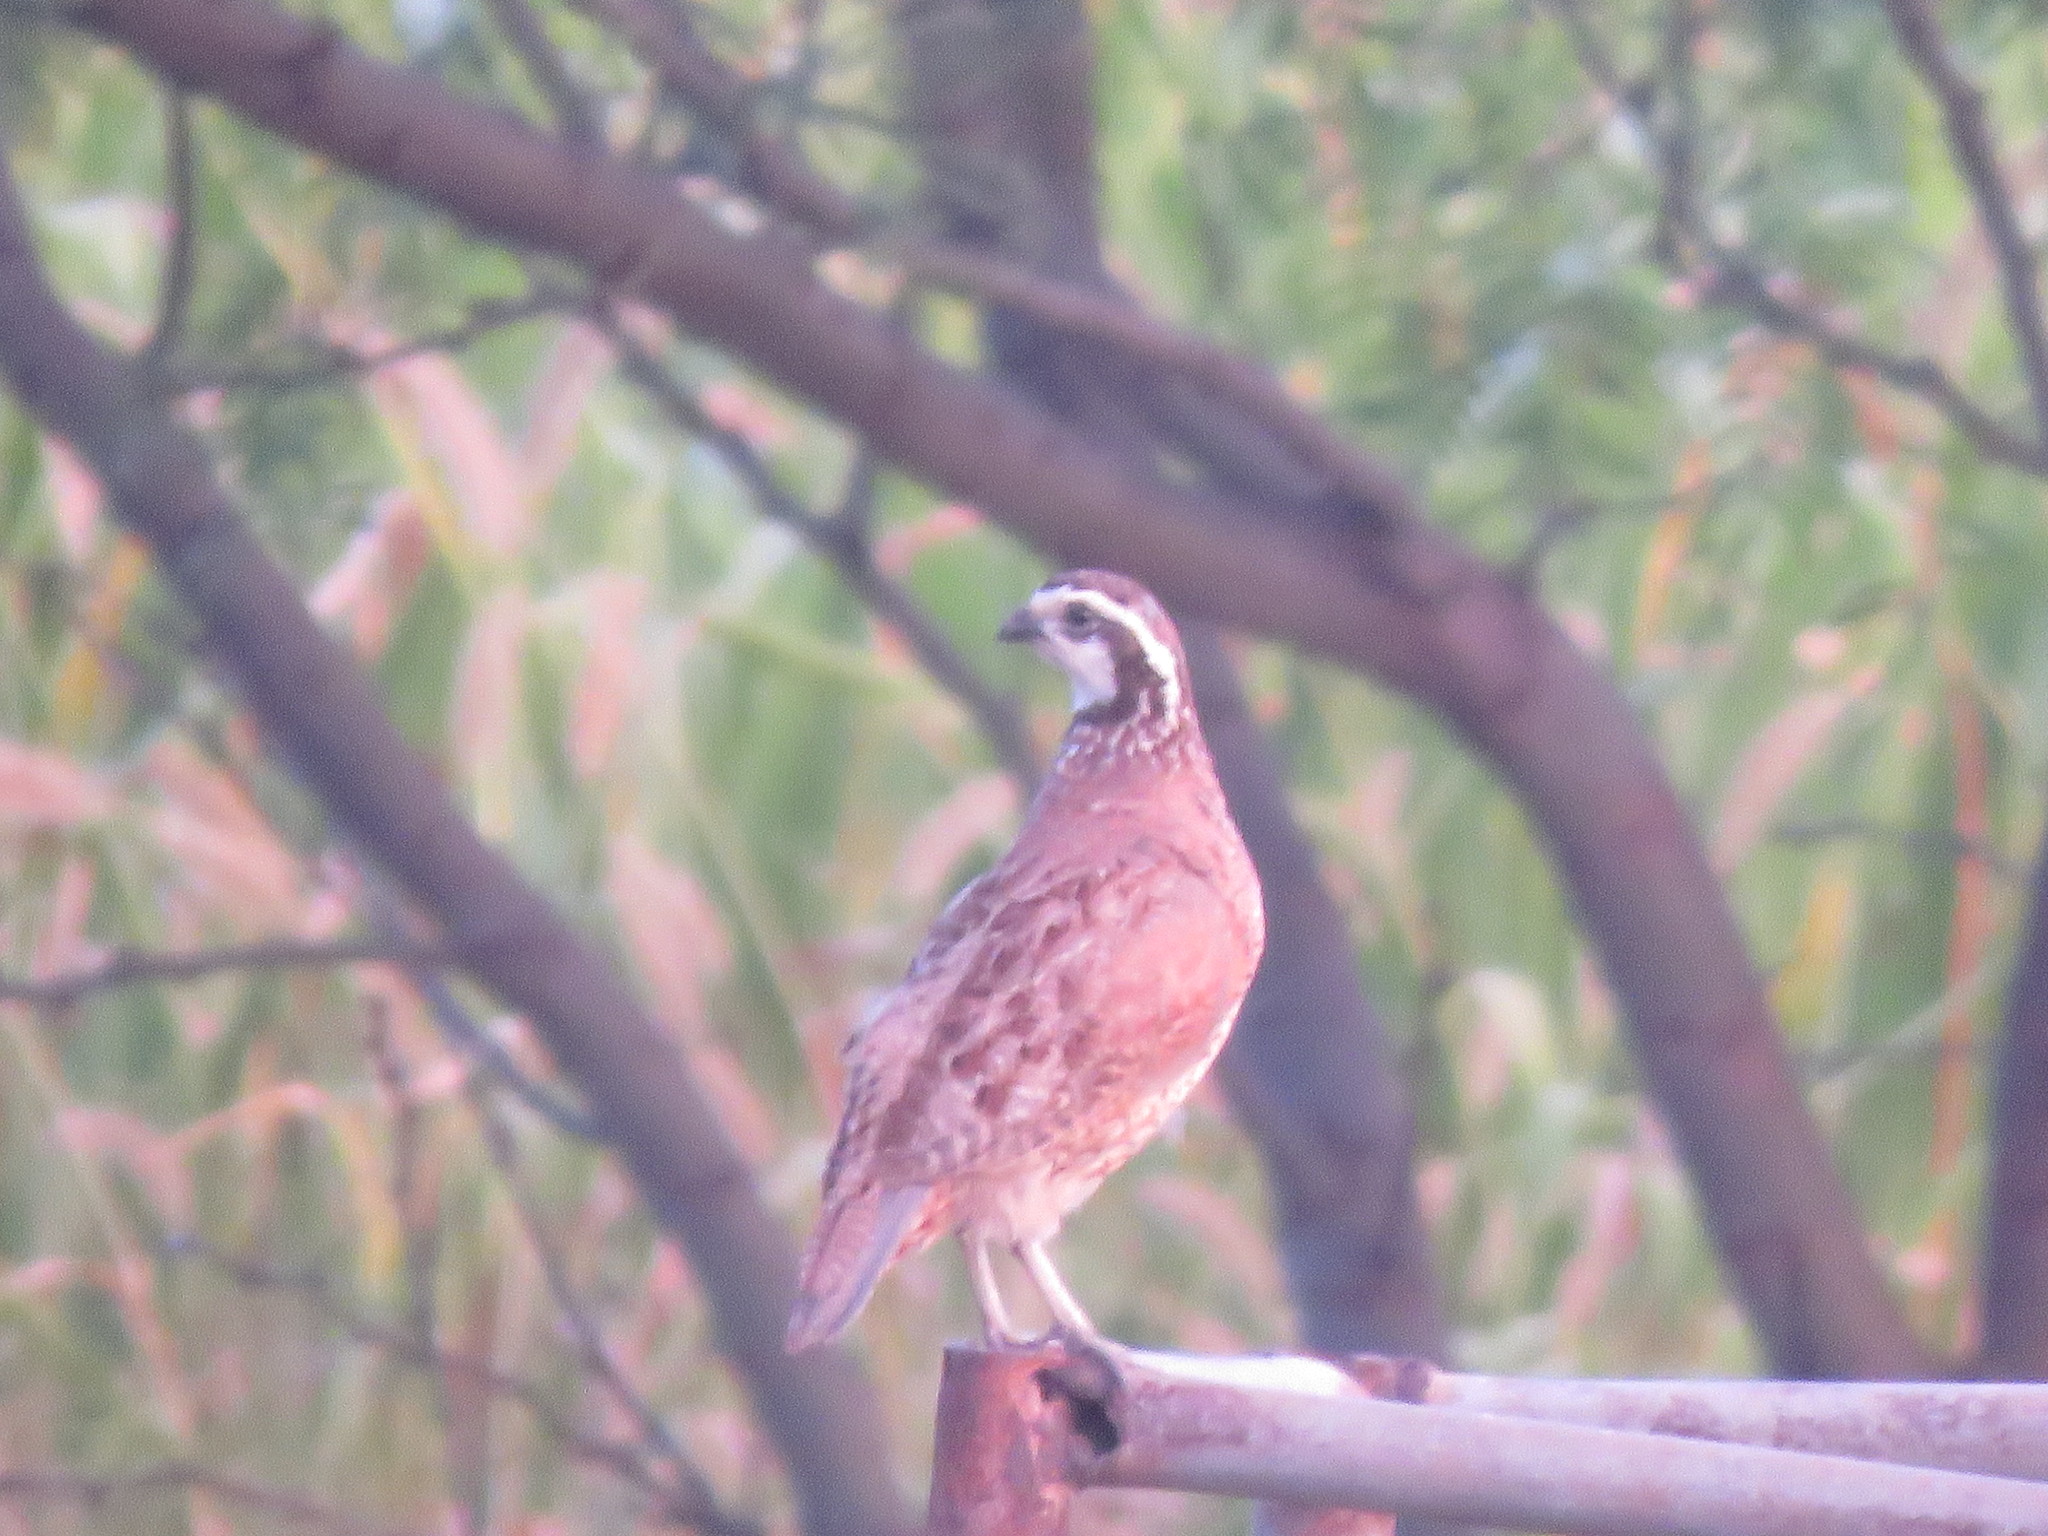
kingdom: Animalia
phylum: Chordata
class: Aves
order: Galliformes
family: Odontophoridae
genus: Colinus
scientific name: Colinus virginianus
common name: Northern bobwhite
